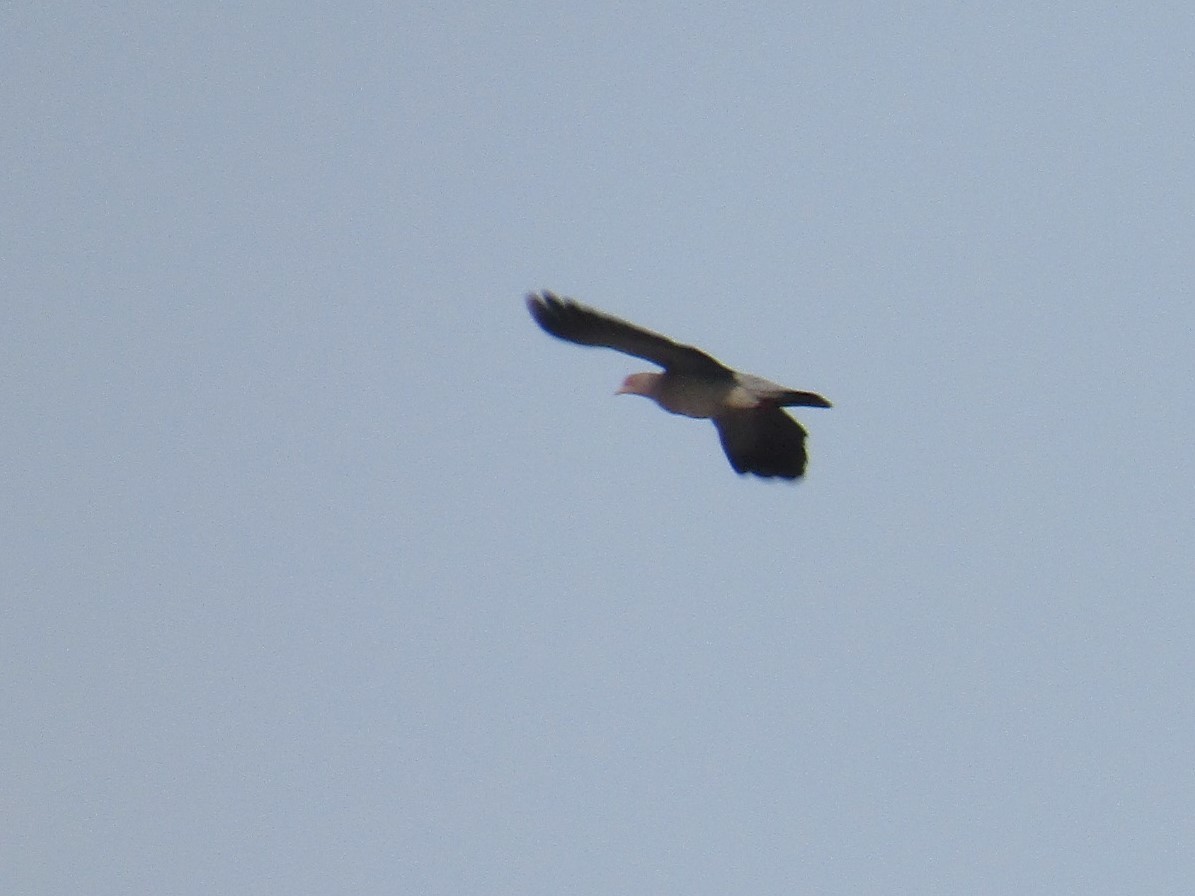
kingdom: Animalia
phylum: Chordata
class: Aves
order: Columbiformes
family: Columbidae
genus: Patagioenas
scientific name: Patagioenas picazuro
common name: Picazuro pigeon
